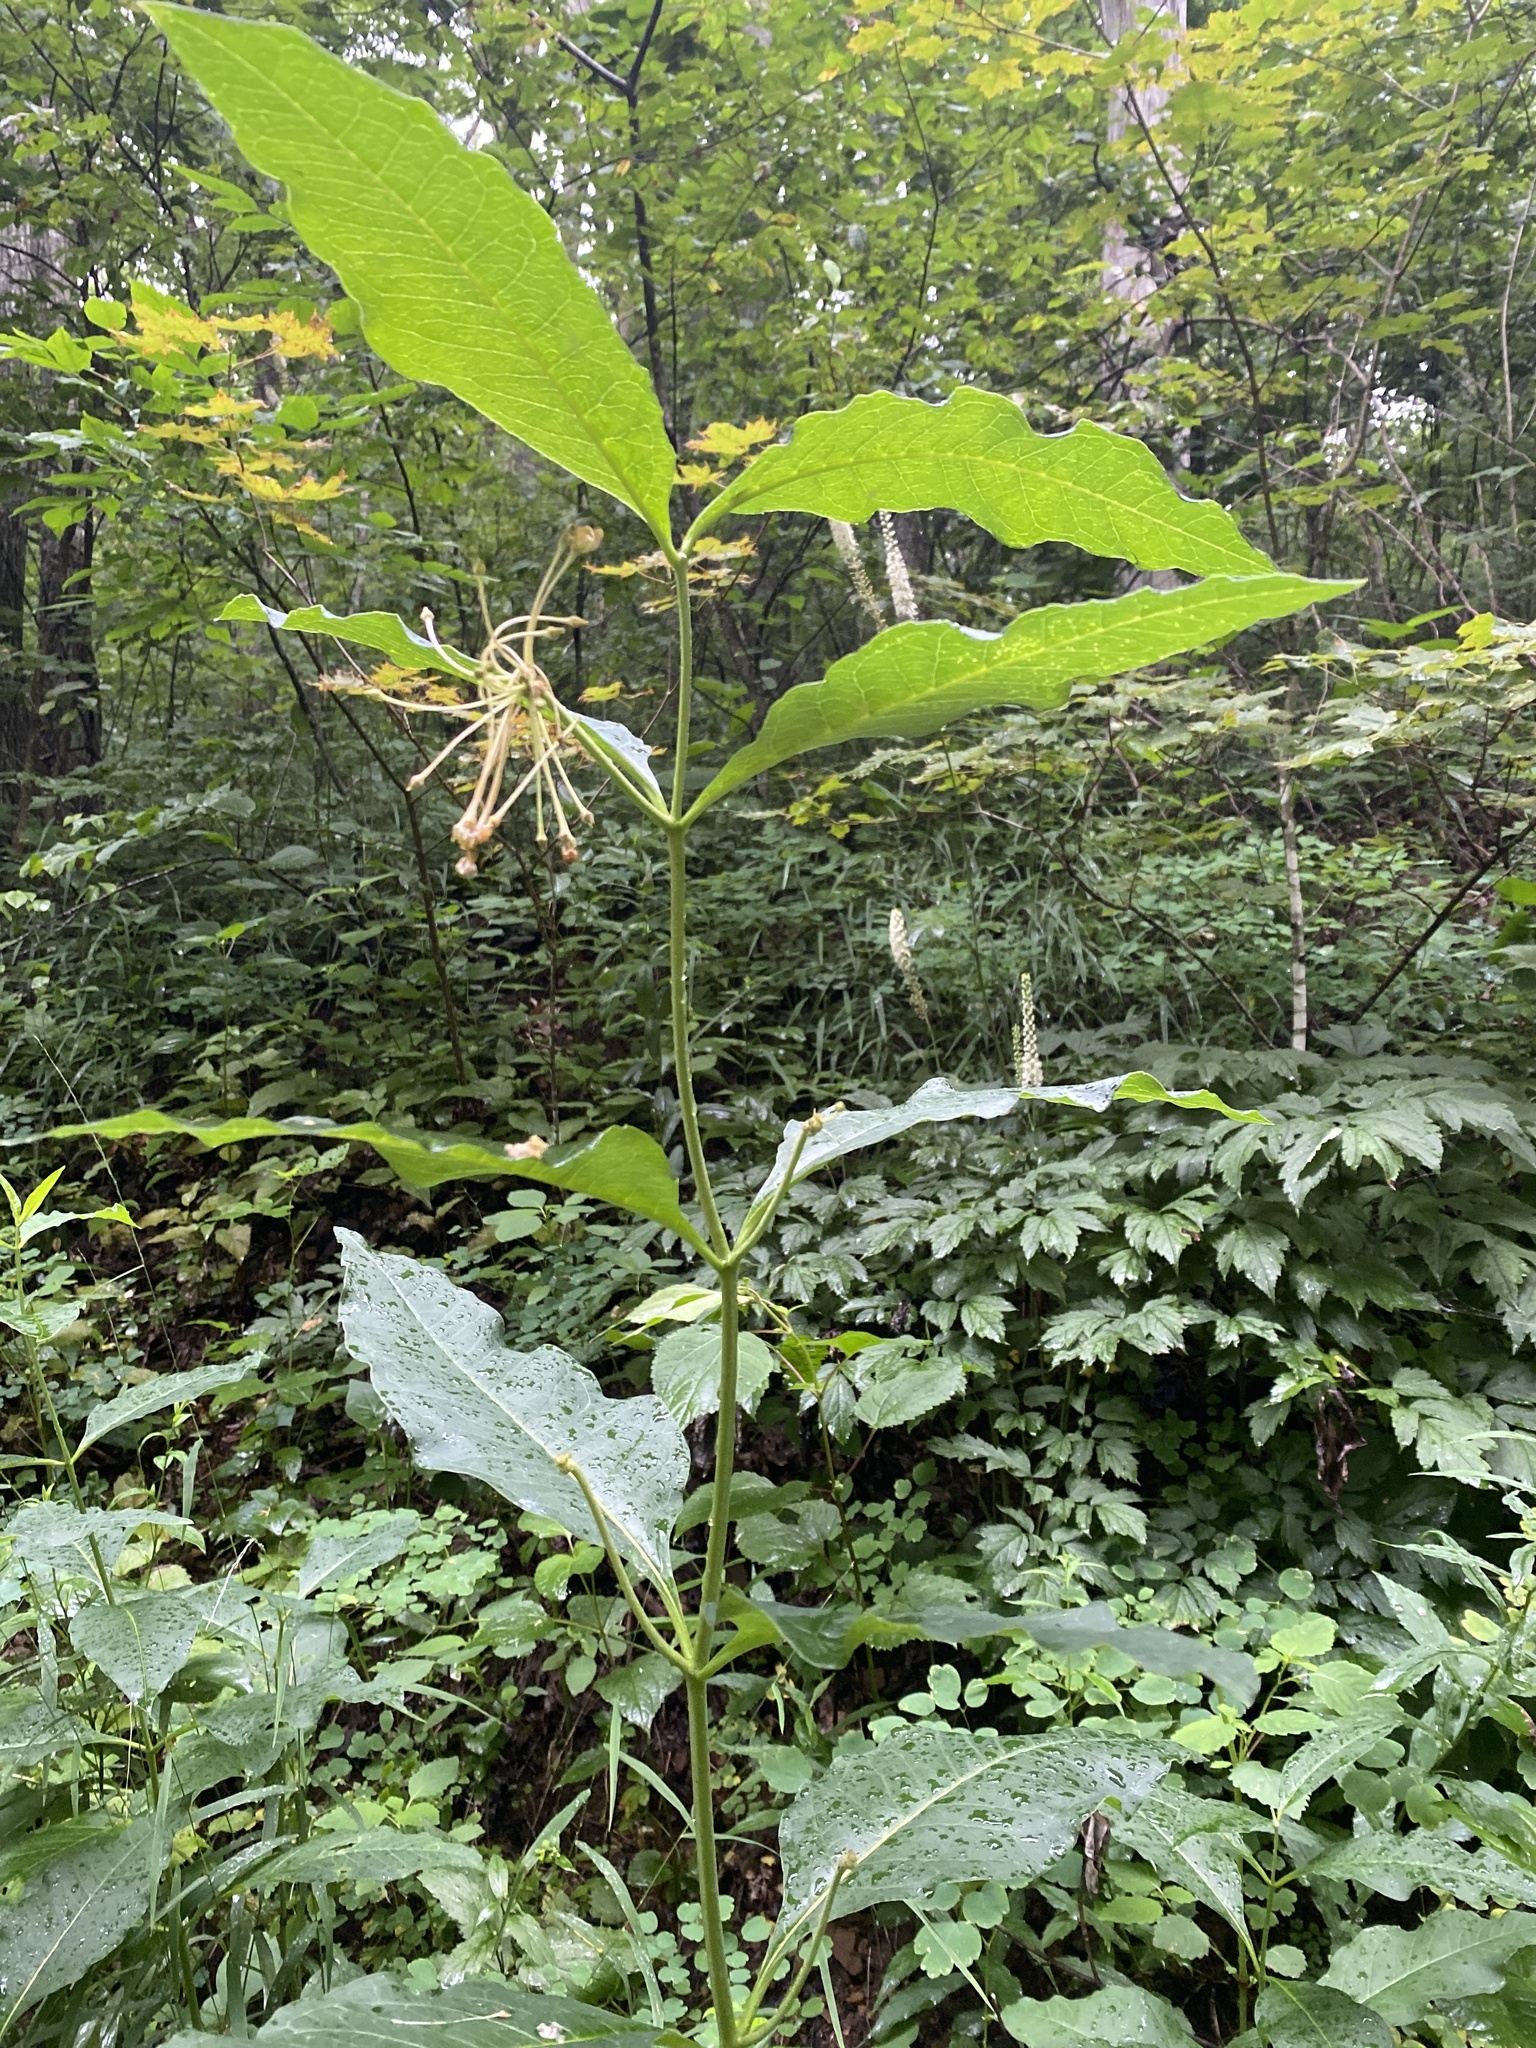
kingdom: Plantae
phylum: Tracheophyta
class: Magnoliopsida
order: Gentianales
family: Apocynaceae
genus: Asclepias
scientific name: Asclepias exaltata
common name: Poke milkweed
